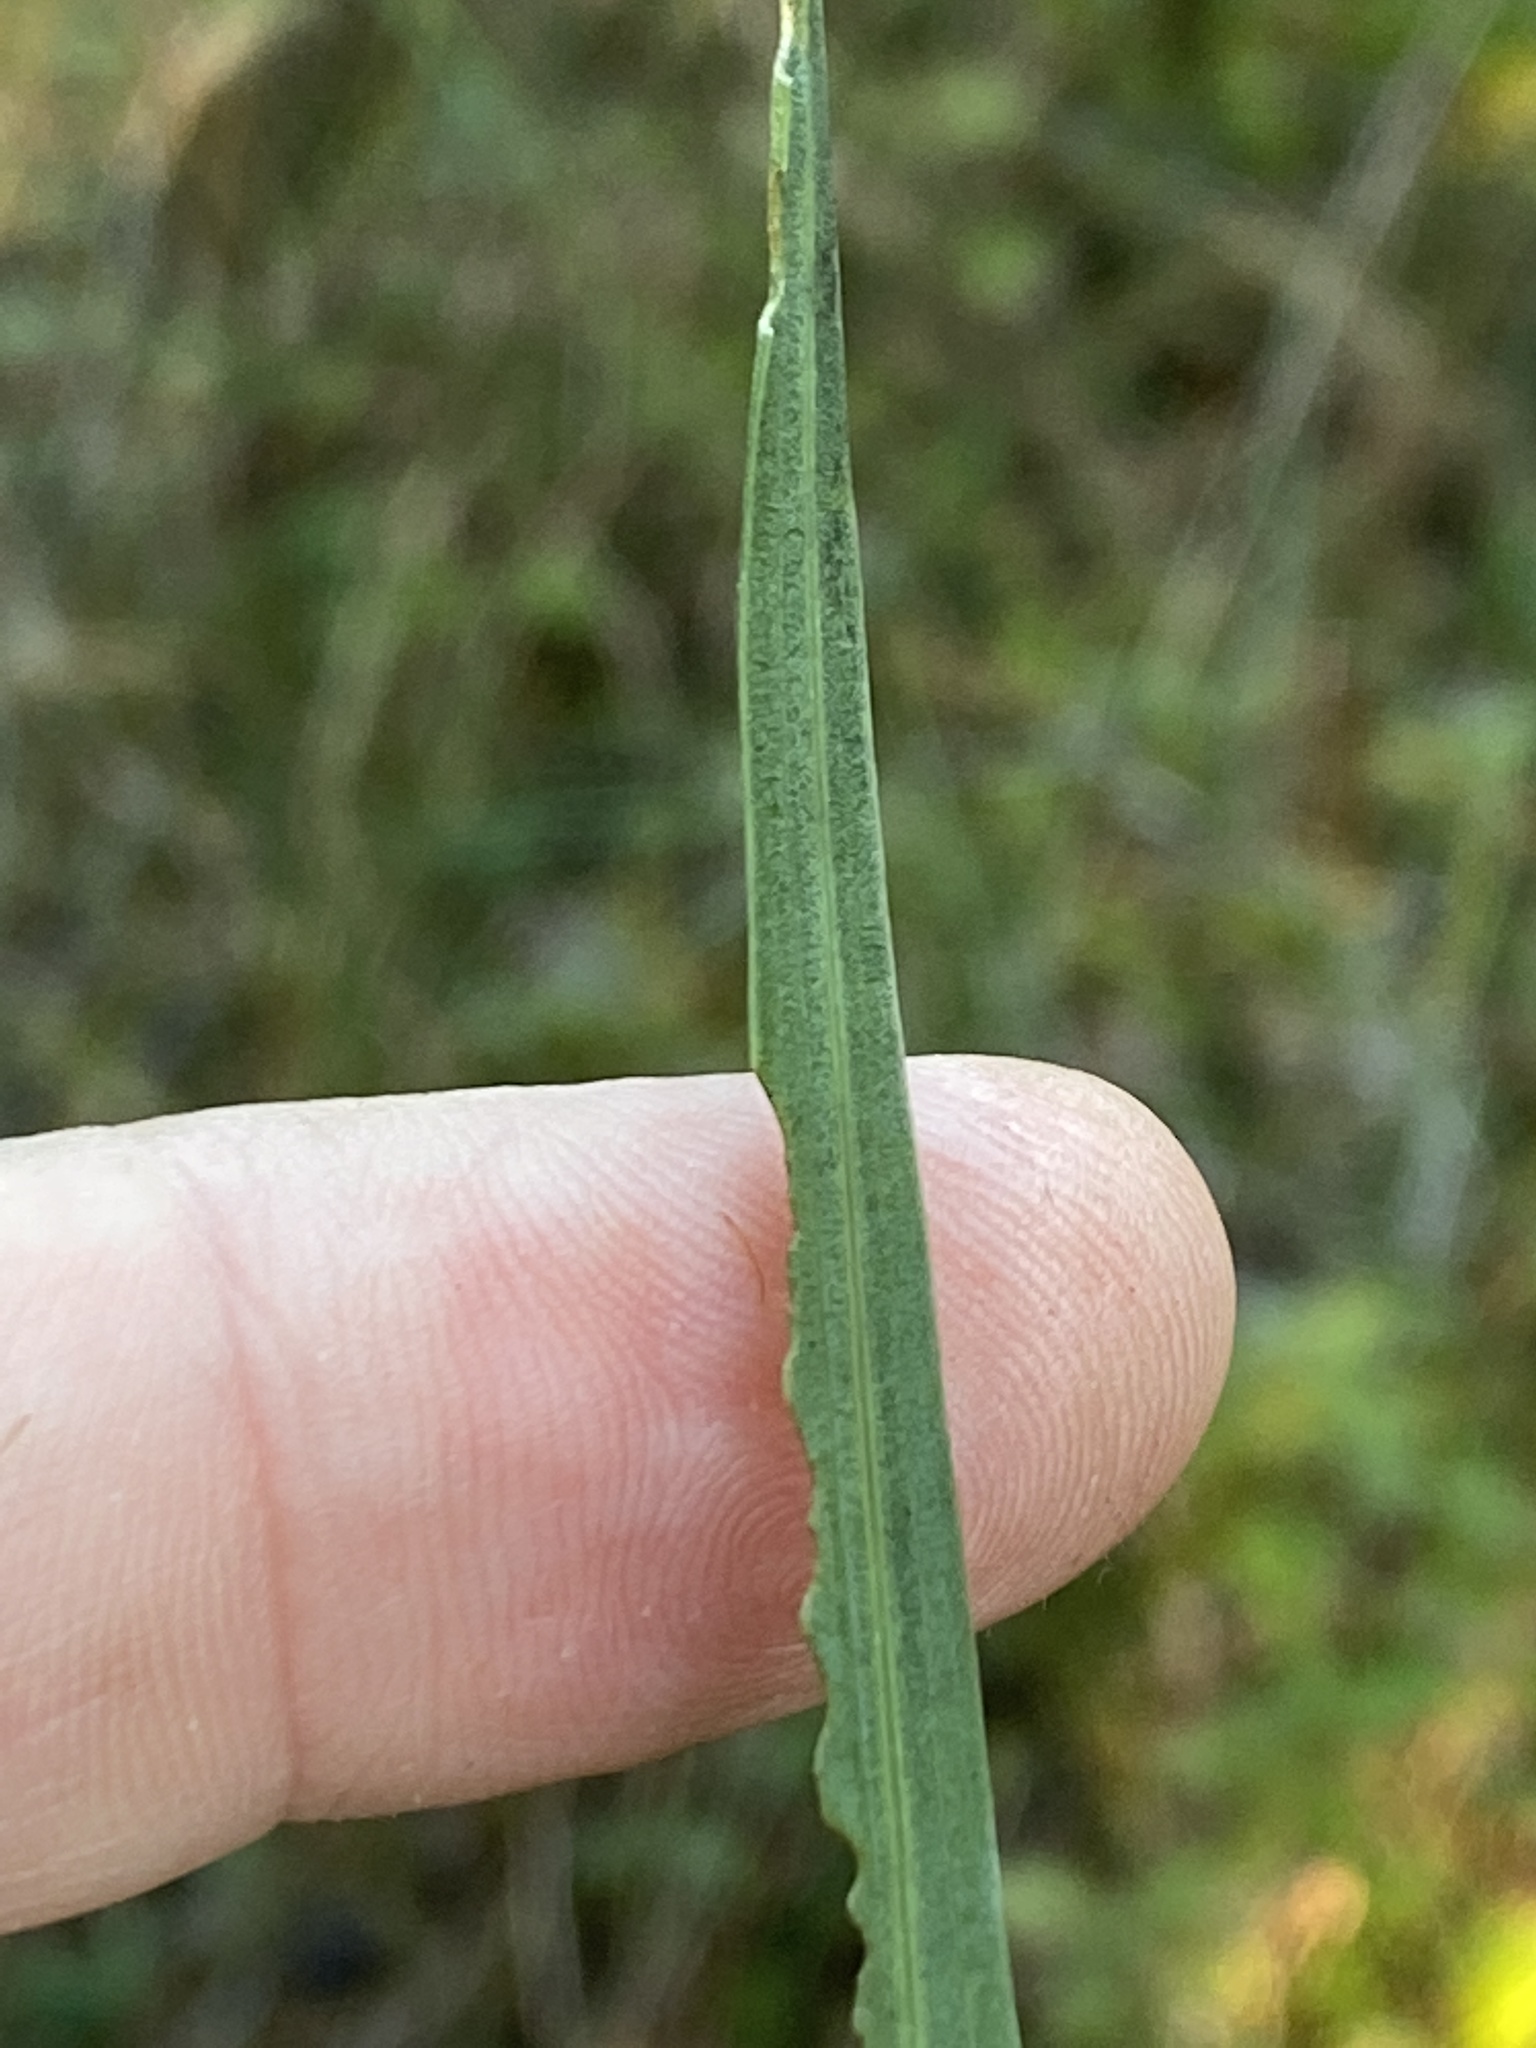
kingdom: Plantae
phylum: Tracheophyta
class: Magnoliopsida
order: Asterales
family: Asteraceae
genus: Liatris
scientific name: Liatris spicata
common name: Florist gayfeather
